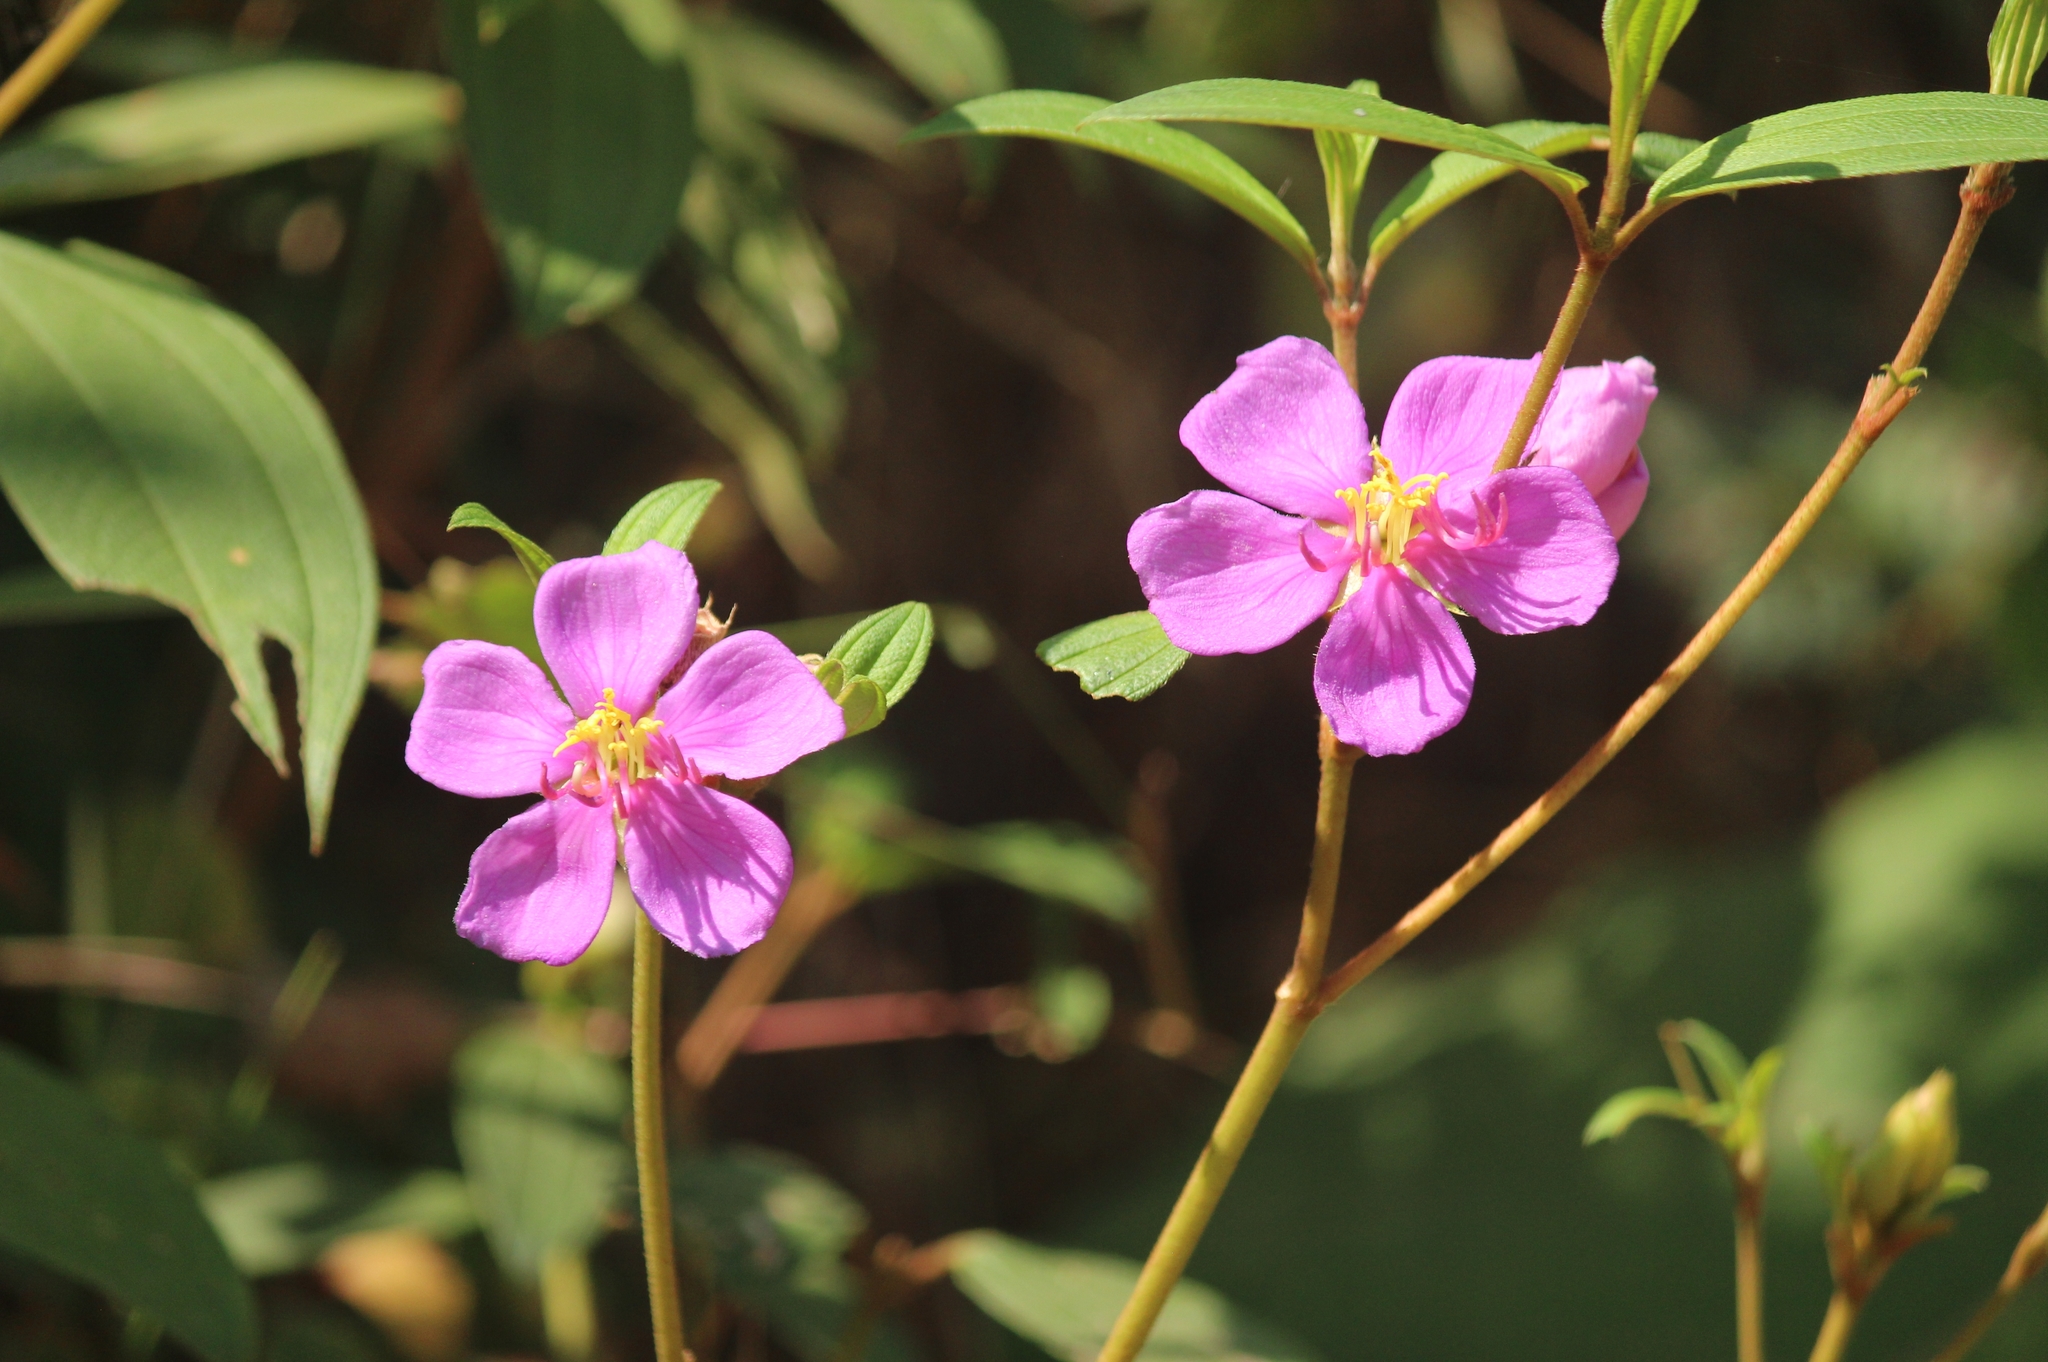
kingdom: Plantae
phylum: Tracheophyta
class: Magnoliopsida
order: Myrtales
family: Melastomataceae
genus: Melastoma
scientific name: Melastoma malabathricum
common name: Indian-rhododendron
